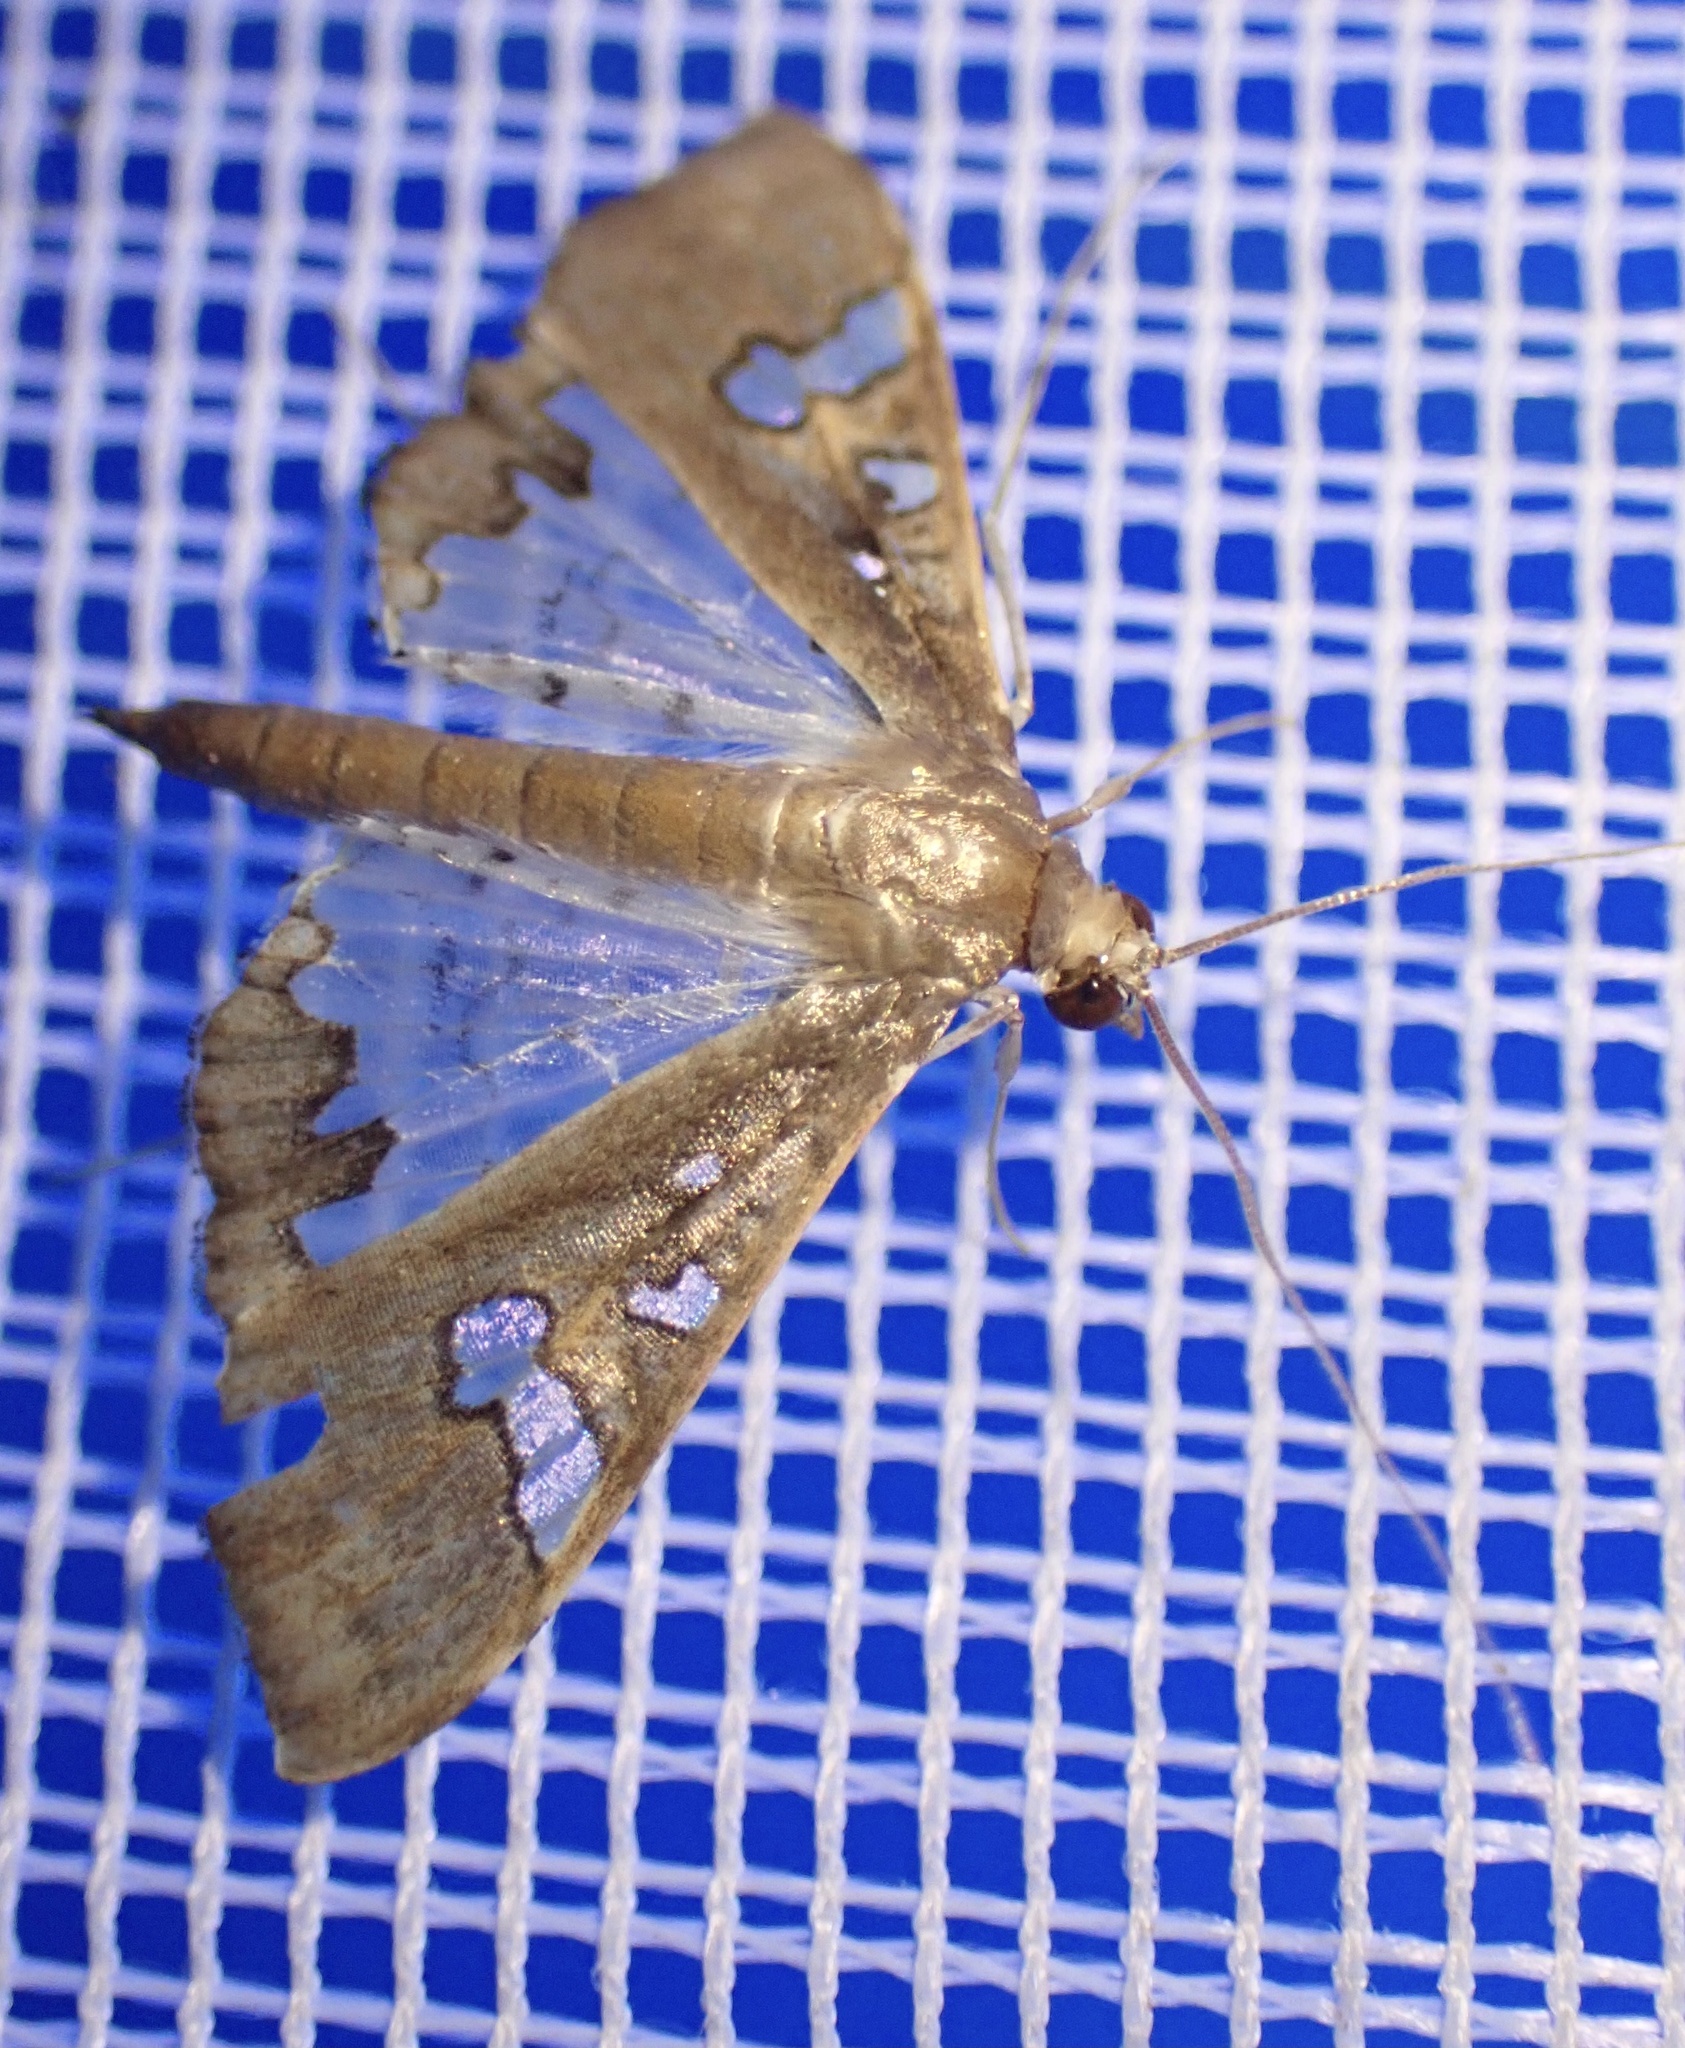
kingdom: Animalia
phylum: Arthropoda
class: Insecta
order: Lepidoptera
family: Crambidae
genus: Maruca
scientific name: Maruca vitrata
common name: Maruca pod borer
